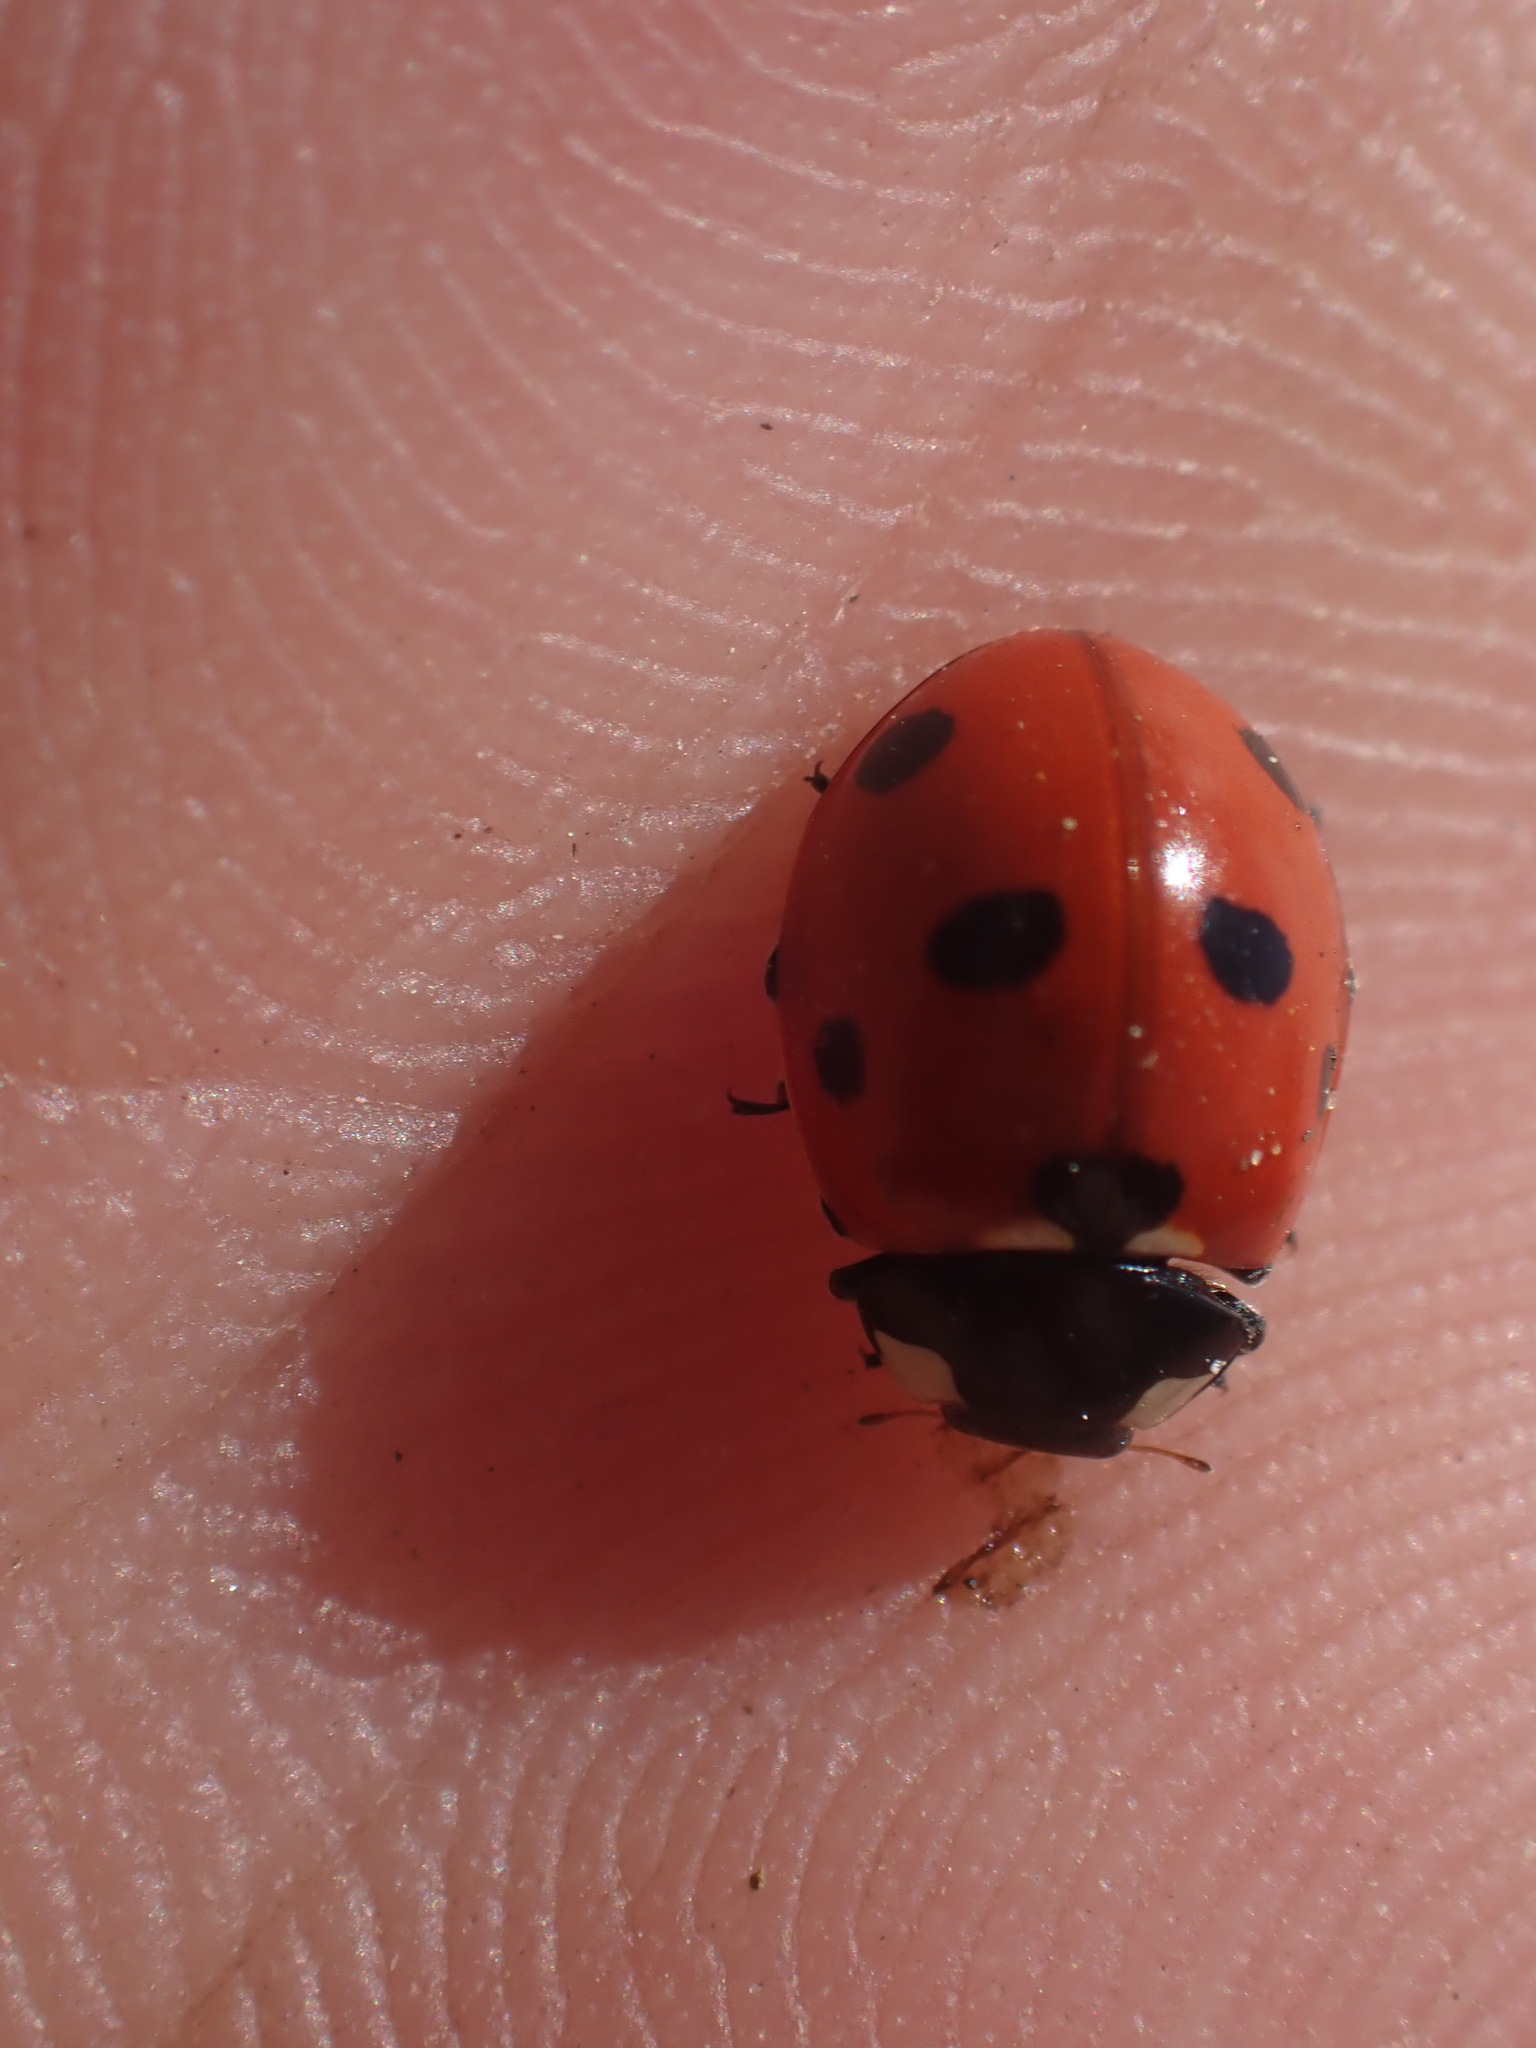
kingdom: Animalia
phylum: Arthropoda
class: Insecta
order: Coleoptera
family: Coccinellidae
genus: Coccinella
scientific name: Coccinella septempunctata
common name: Sevenspotted lady beetle
